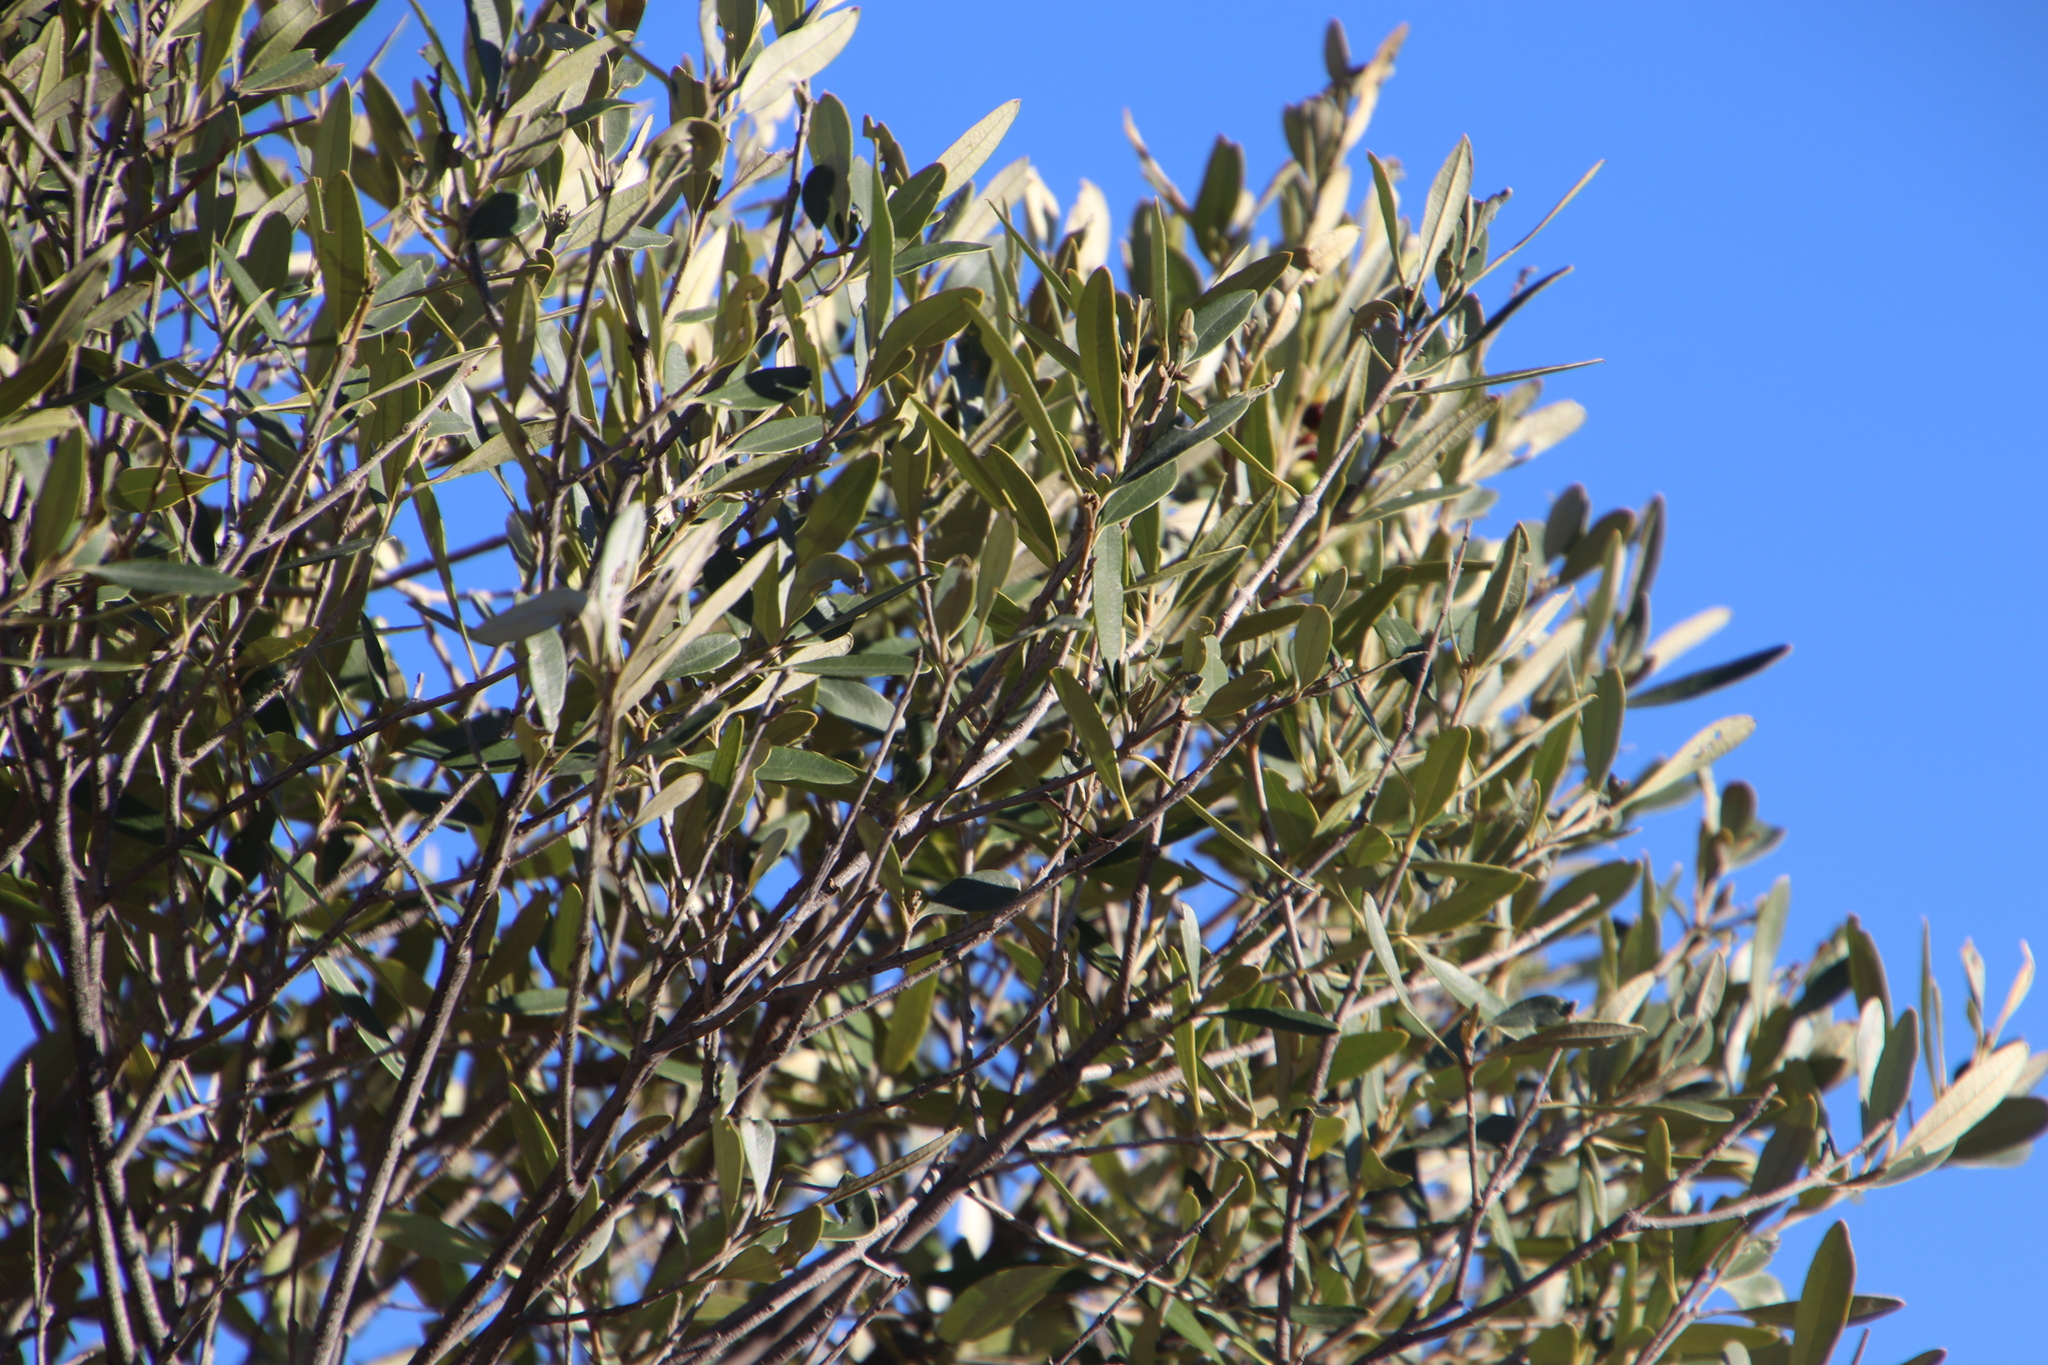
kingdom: Plantae
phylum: Tracheophyta
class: Magnoliopsida
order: Lamiales
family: Oleaceae
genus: Olea
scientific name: Olea europaea
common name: Olive
